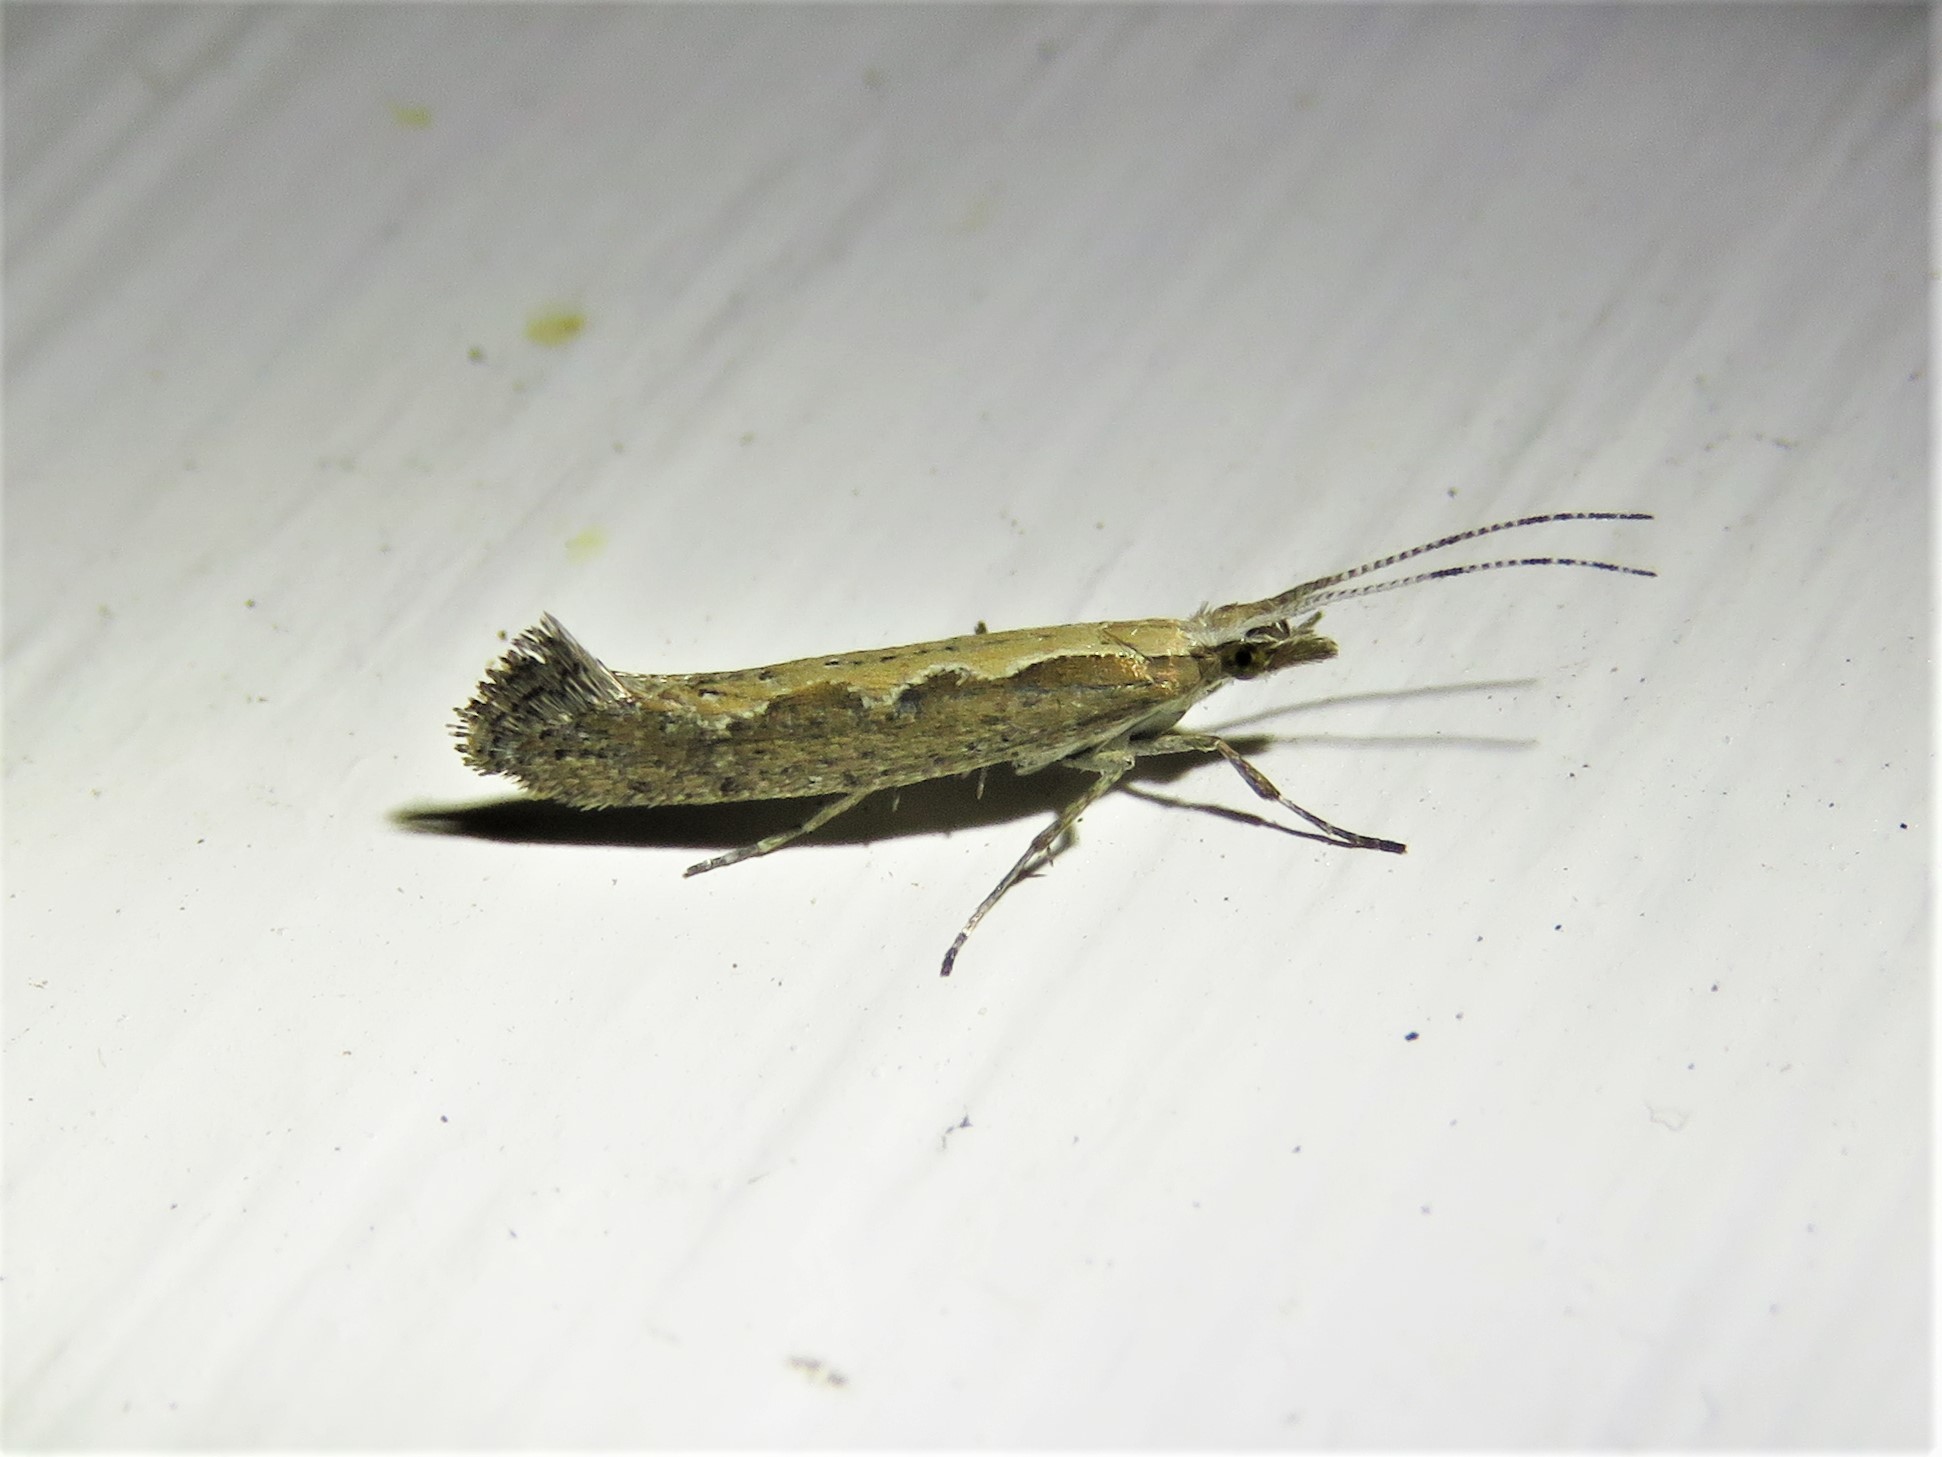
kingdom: Animalia
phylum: Arthropoda
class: Insecta
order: Lepidoptera
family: Plutellidae
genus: Plutella
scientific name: Plutella xylostella
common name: Diamond-back moth
